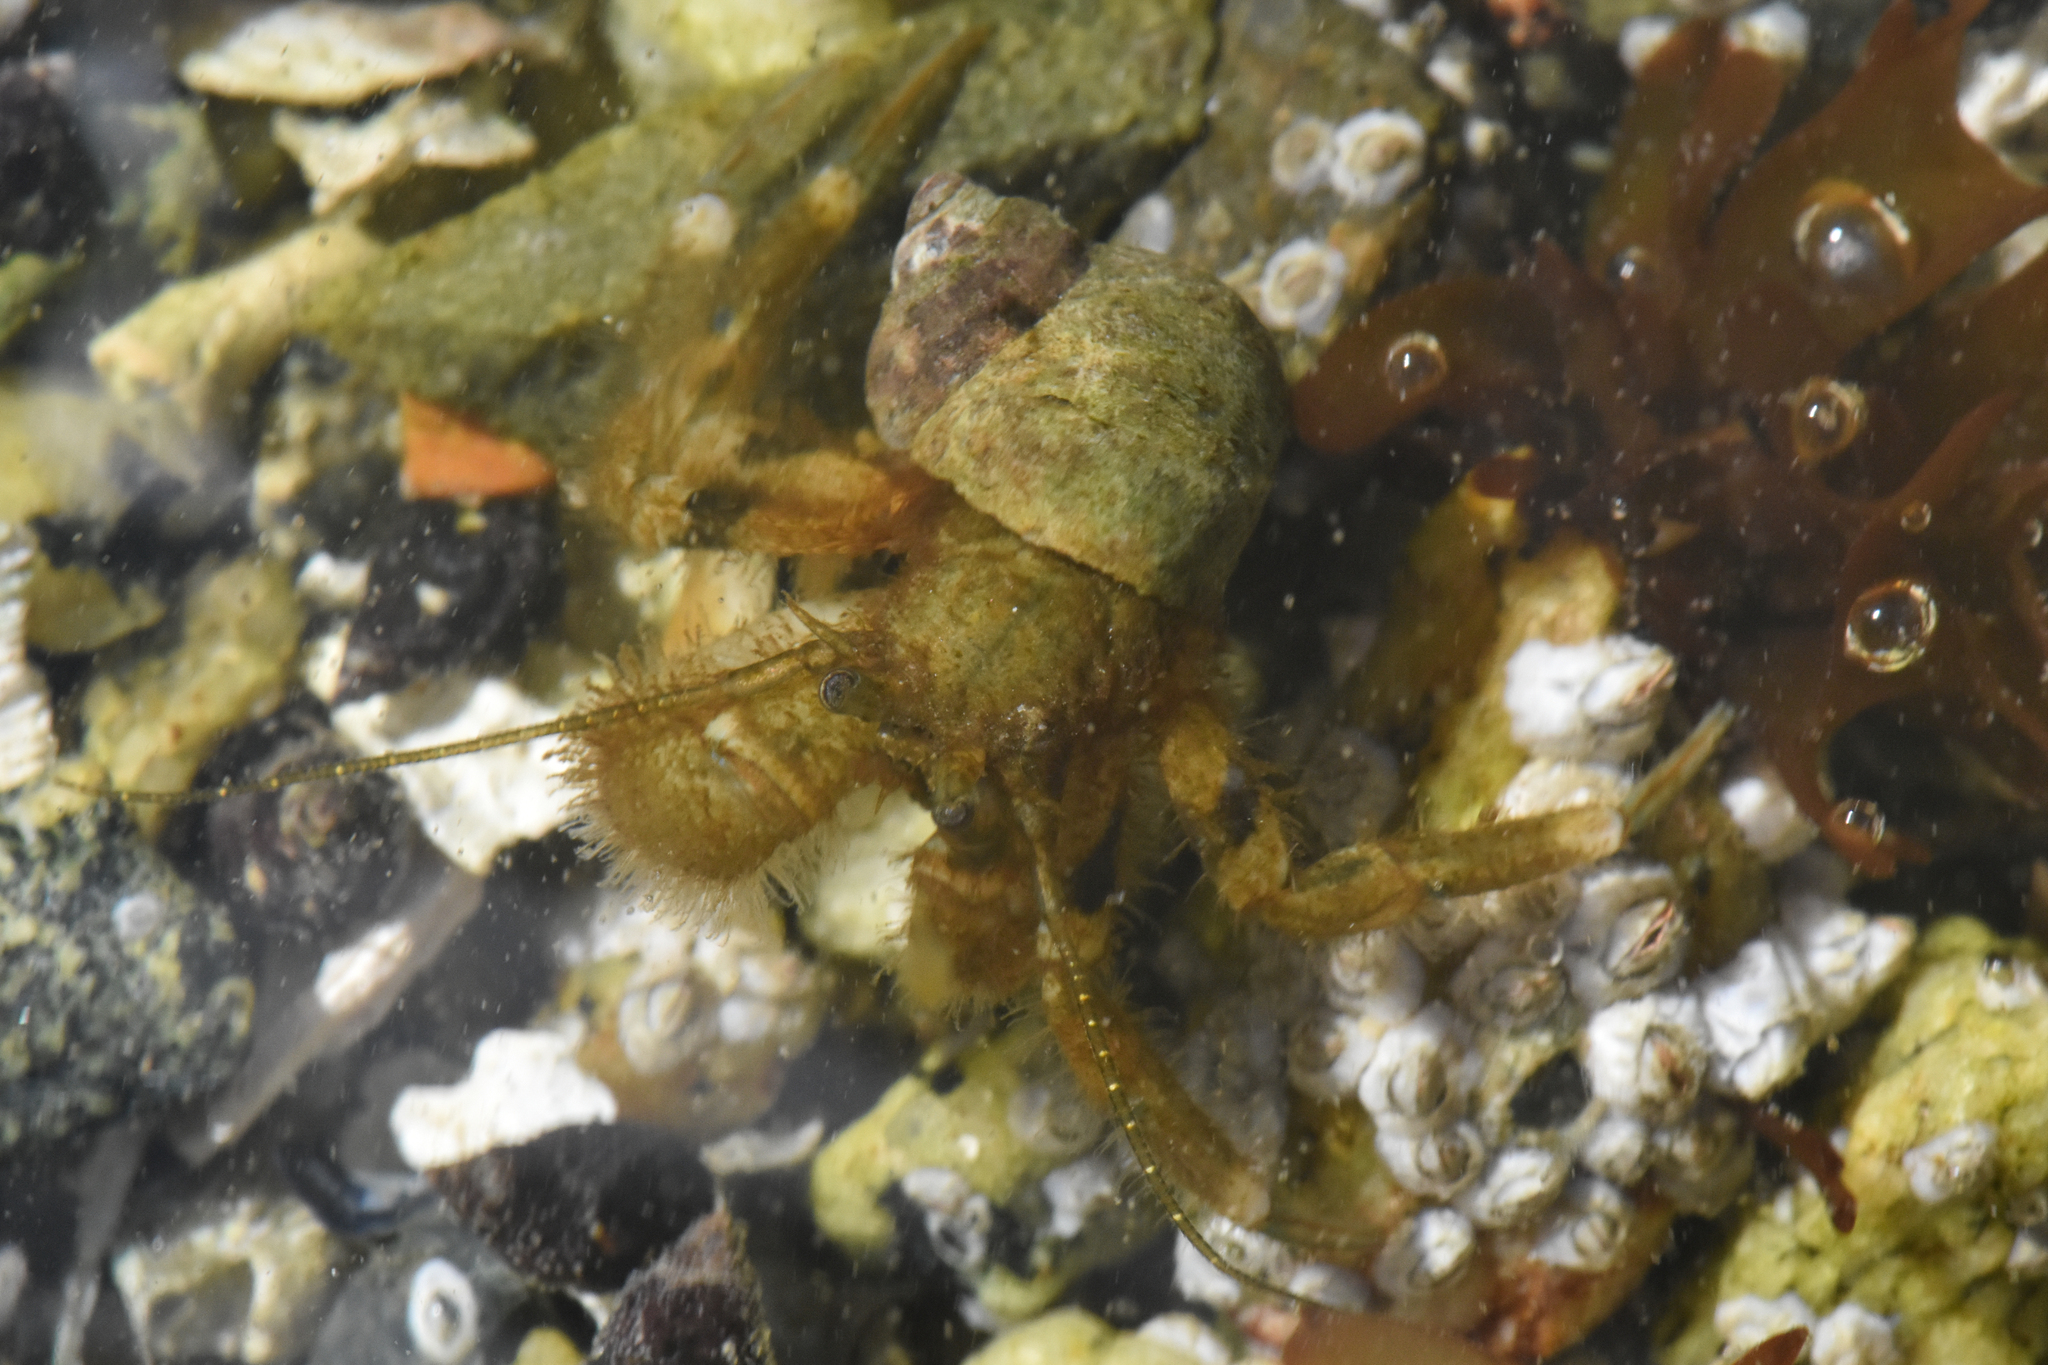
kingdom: Animalia
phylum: Arthropoda
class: Malacostraca
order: Decapoda
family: Paguridae
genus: Pagurus
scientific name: Pagurus hirsutiusculus
